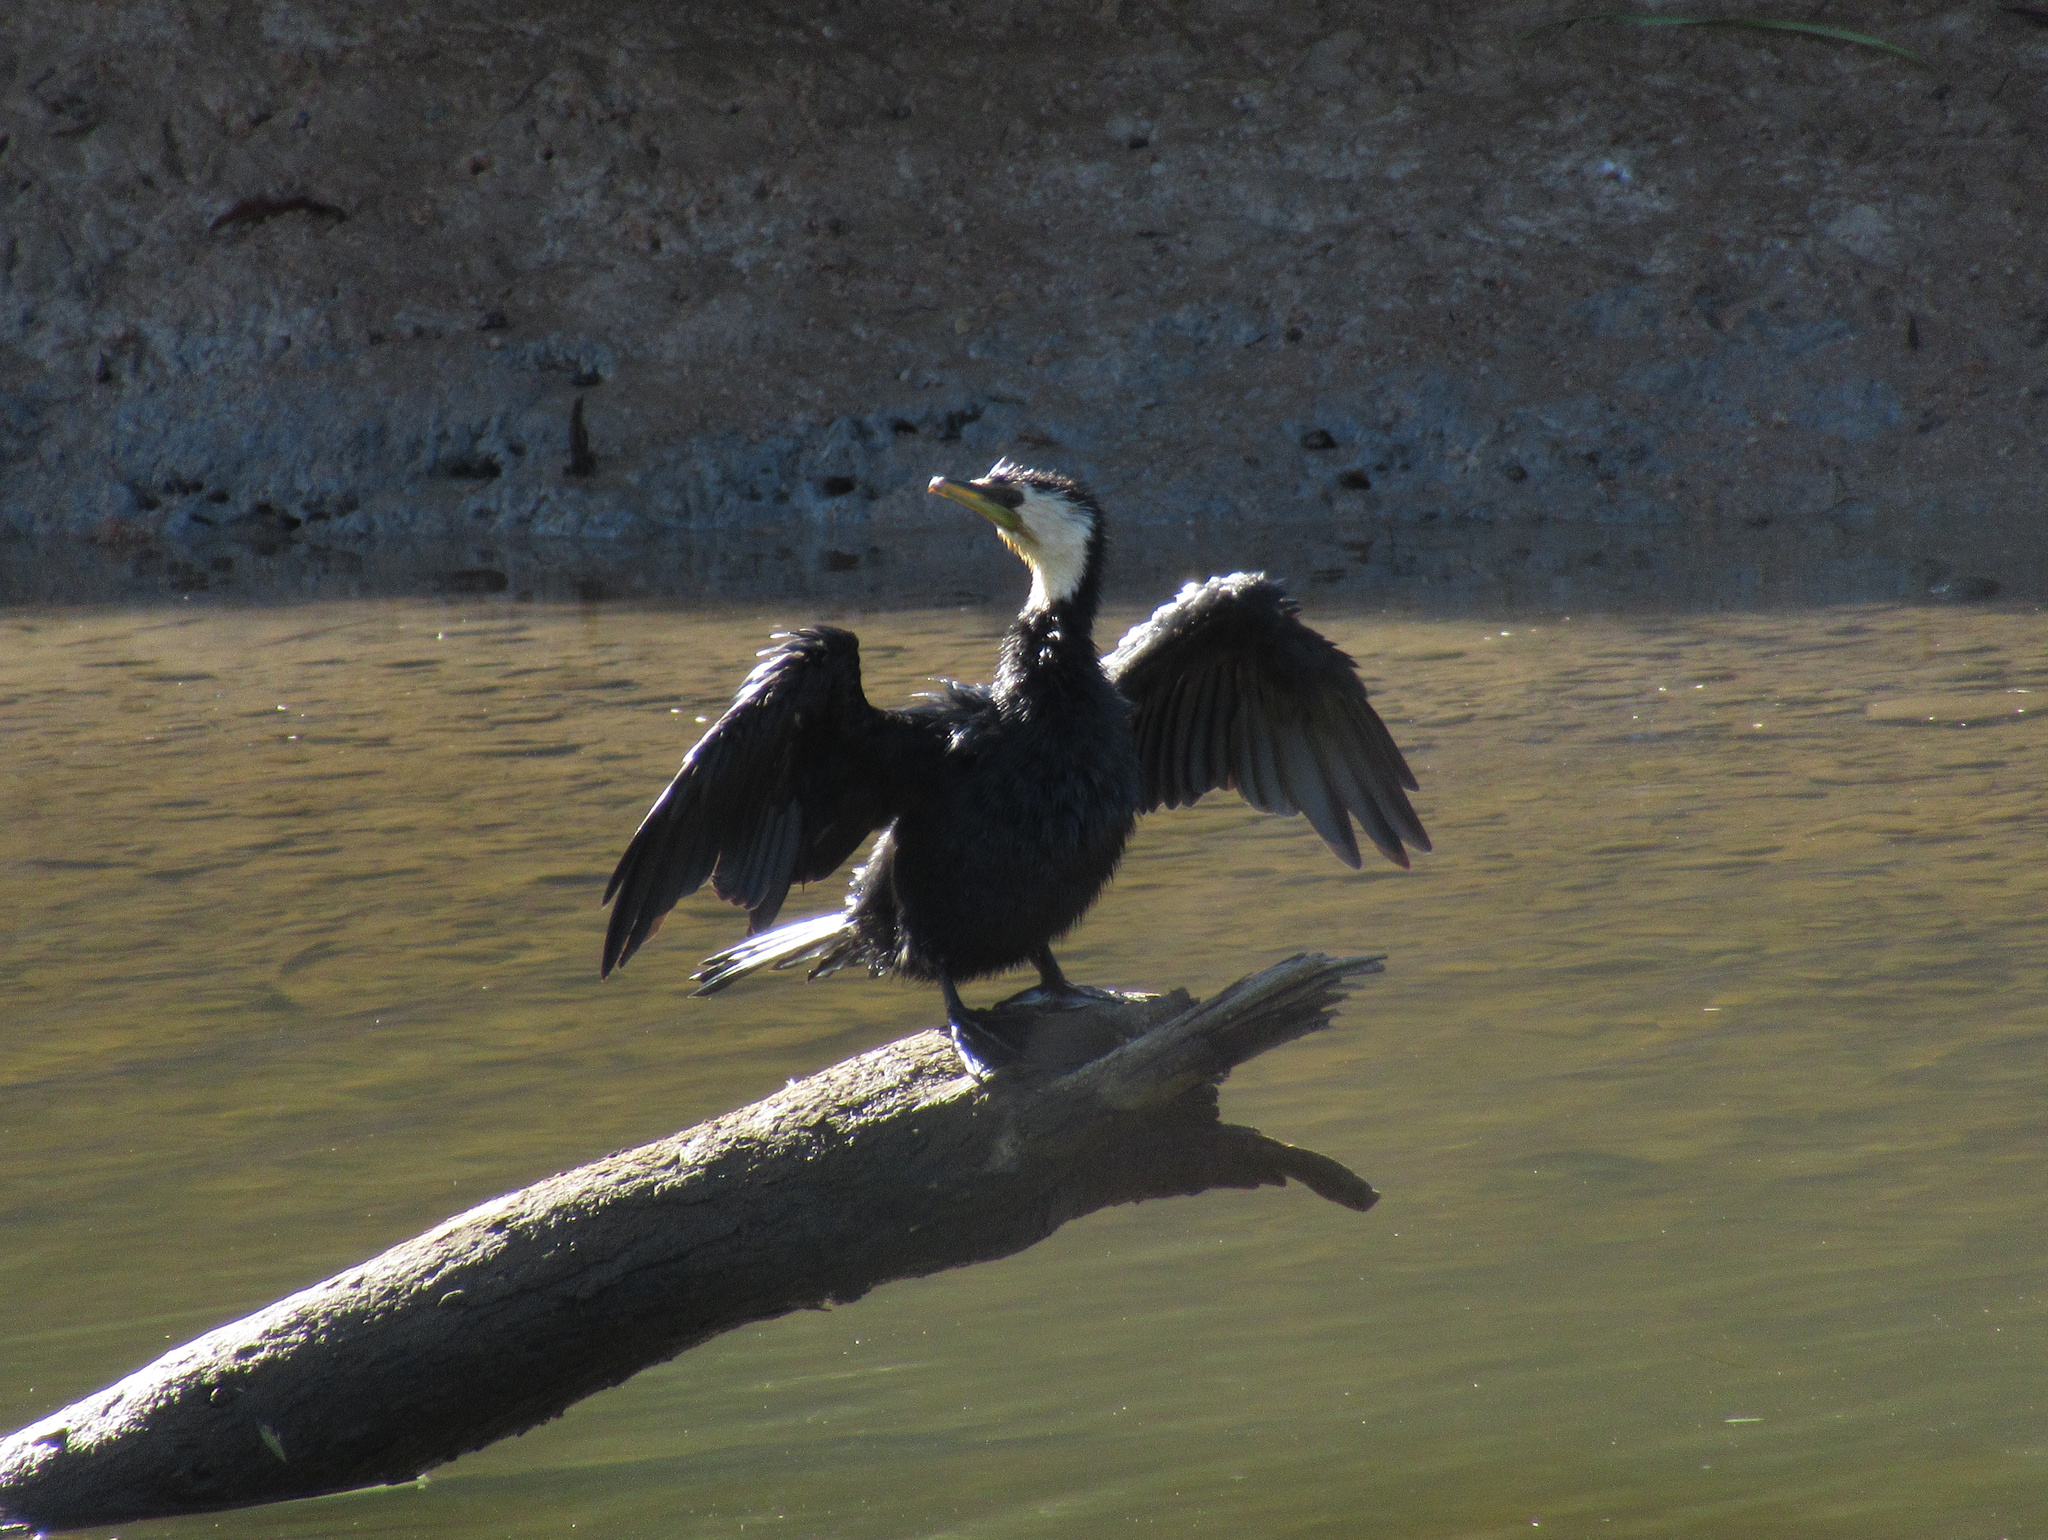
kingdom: Animalia
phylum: Chordata
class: Aves
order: Suliformes
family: Phalacrocoracidae
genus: Microcarbo
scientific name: Microcarbo melanoleucos
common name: Little pied cormorant
